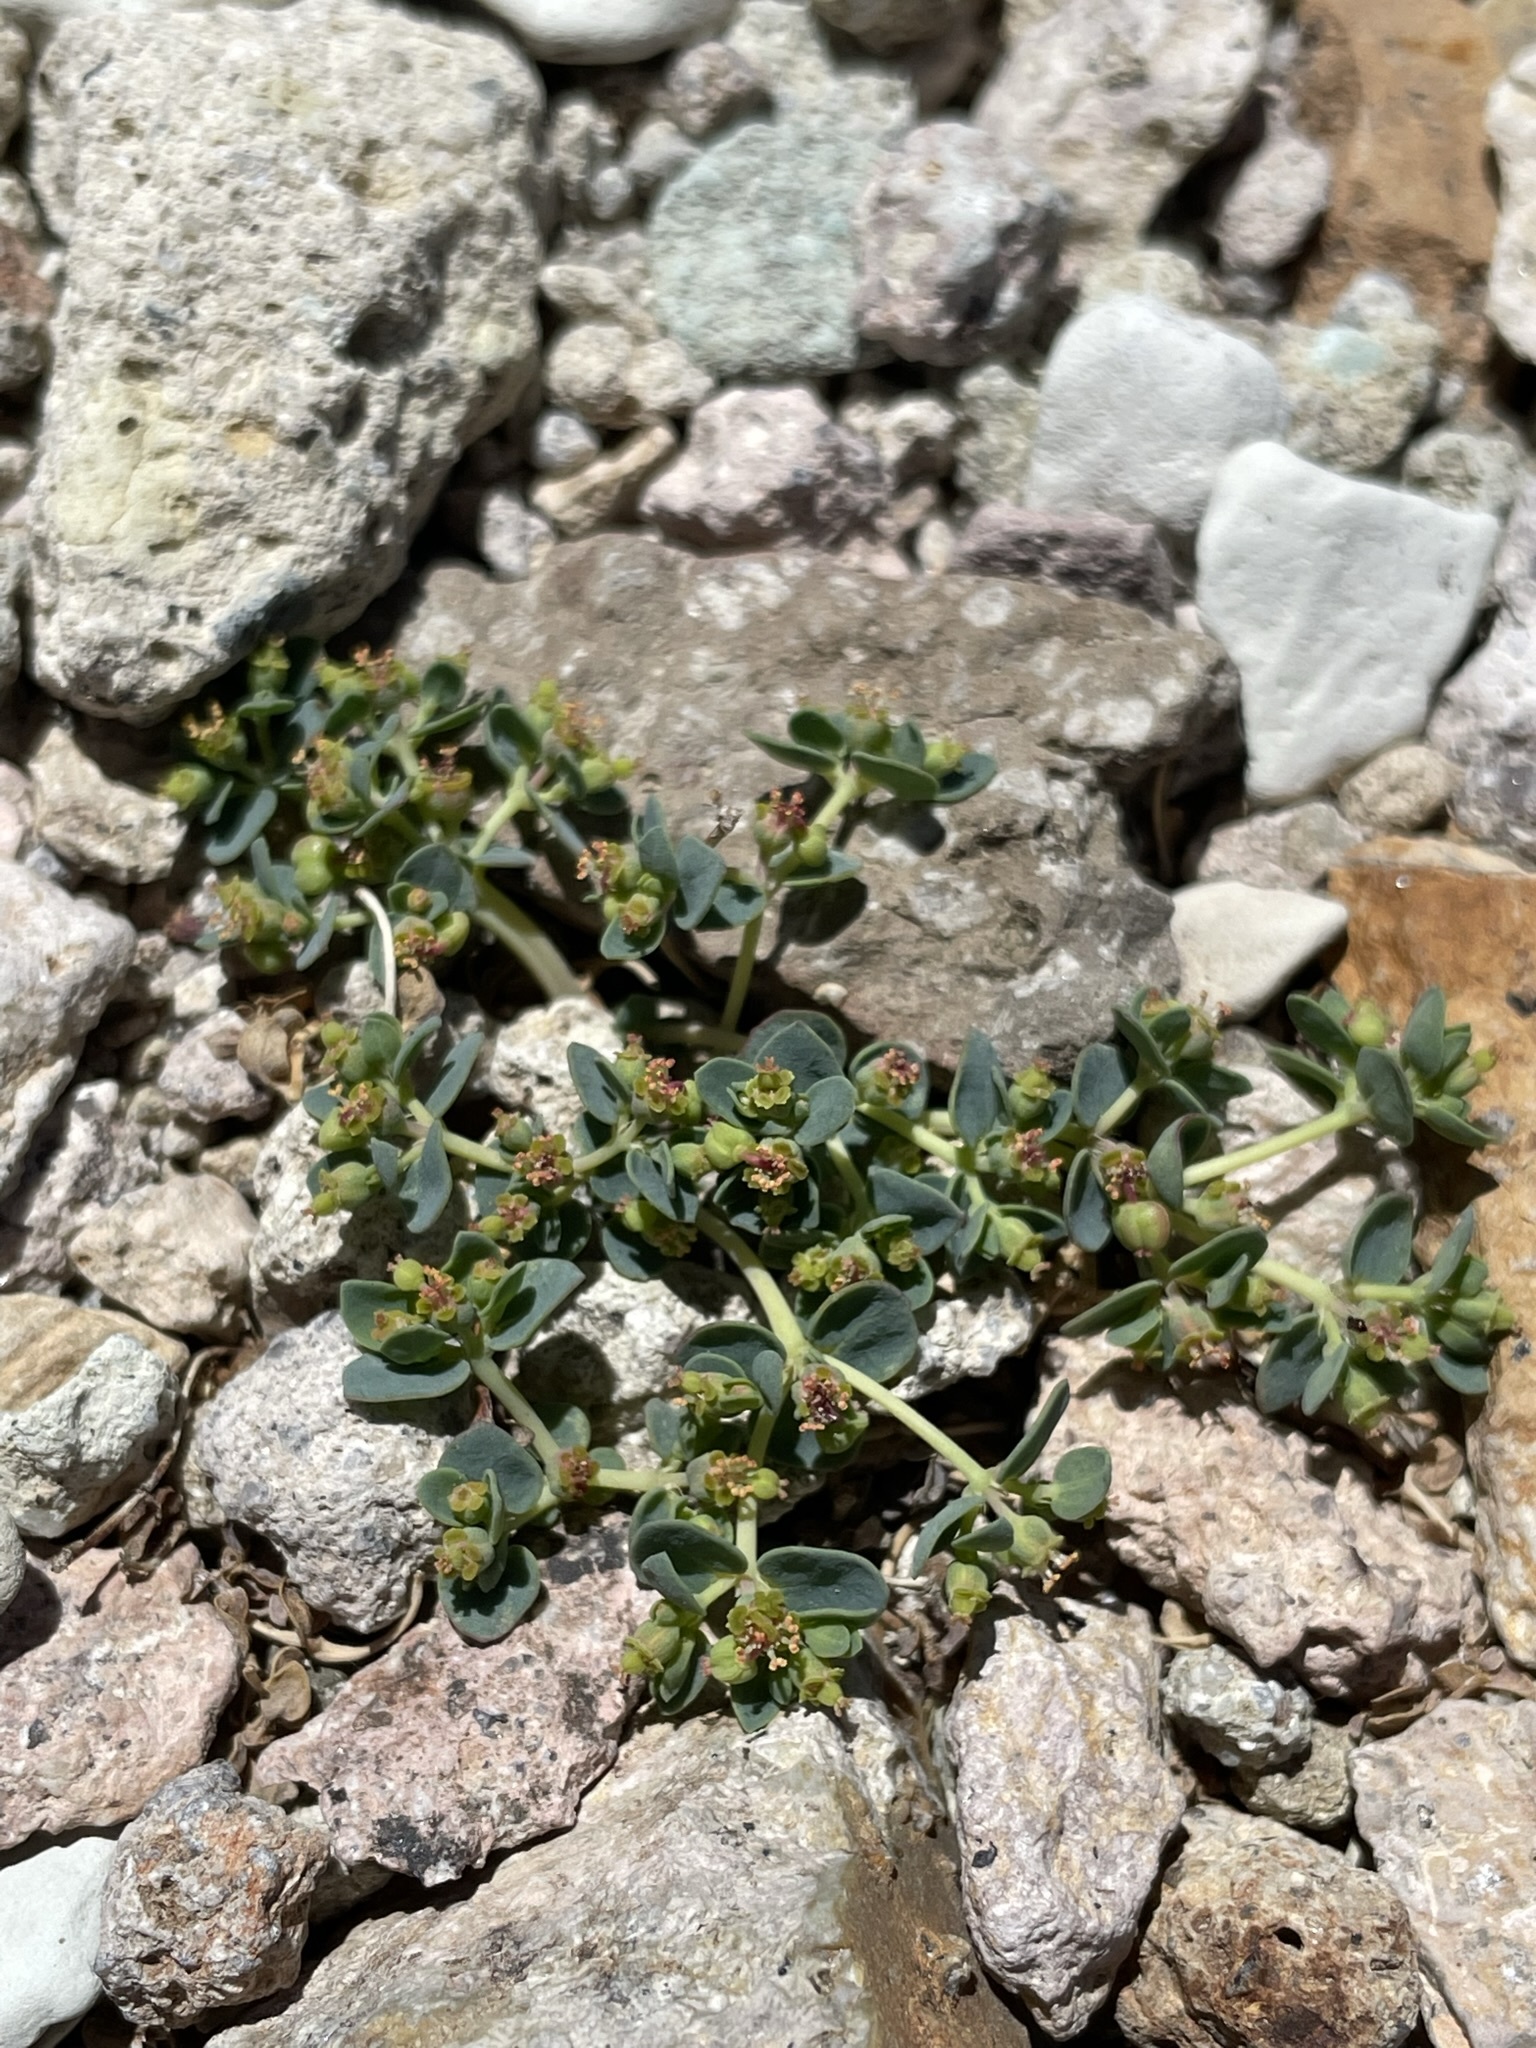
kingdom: Plantae
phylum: Tracheophyta
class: Magnoliopsida
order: Malpighiales
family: Euphorbiaceae
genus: Euphorbia
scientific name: Euphorbia fendleri
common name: Fendler's euphorbia
